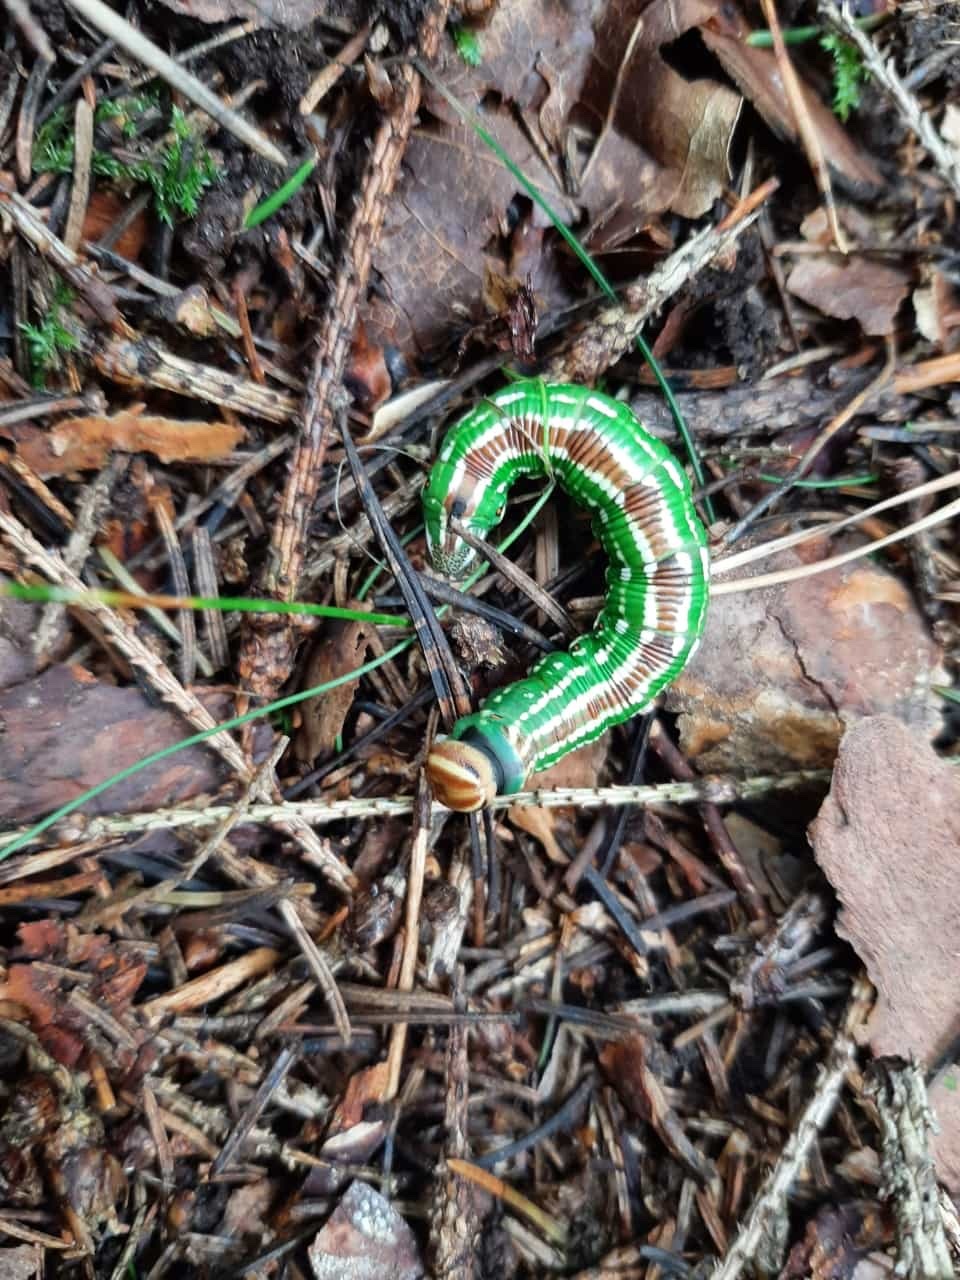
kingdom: Animalia
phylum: Arthropoda
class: Insecta
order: Lepidoptera
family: Sphingidae
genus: Sphinx
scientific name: Sphinx pinastri
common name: Pine hawk-moth
